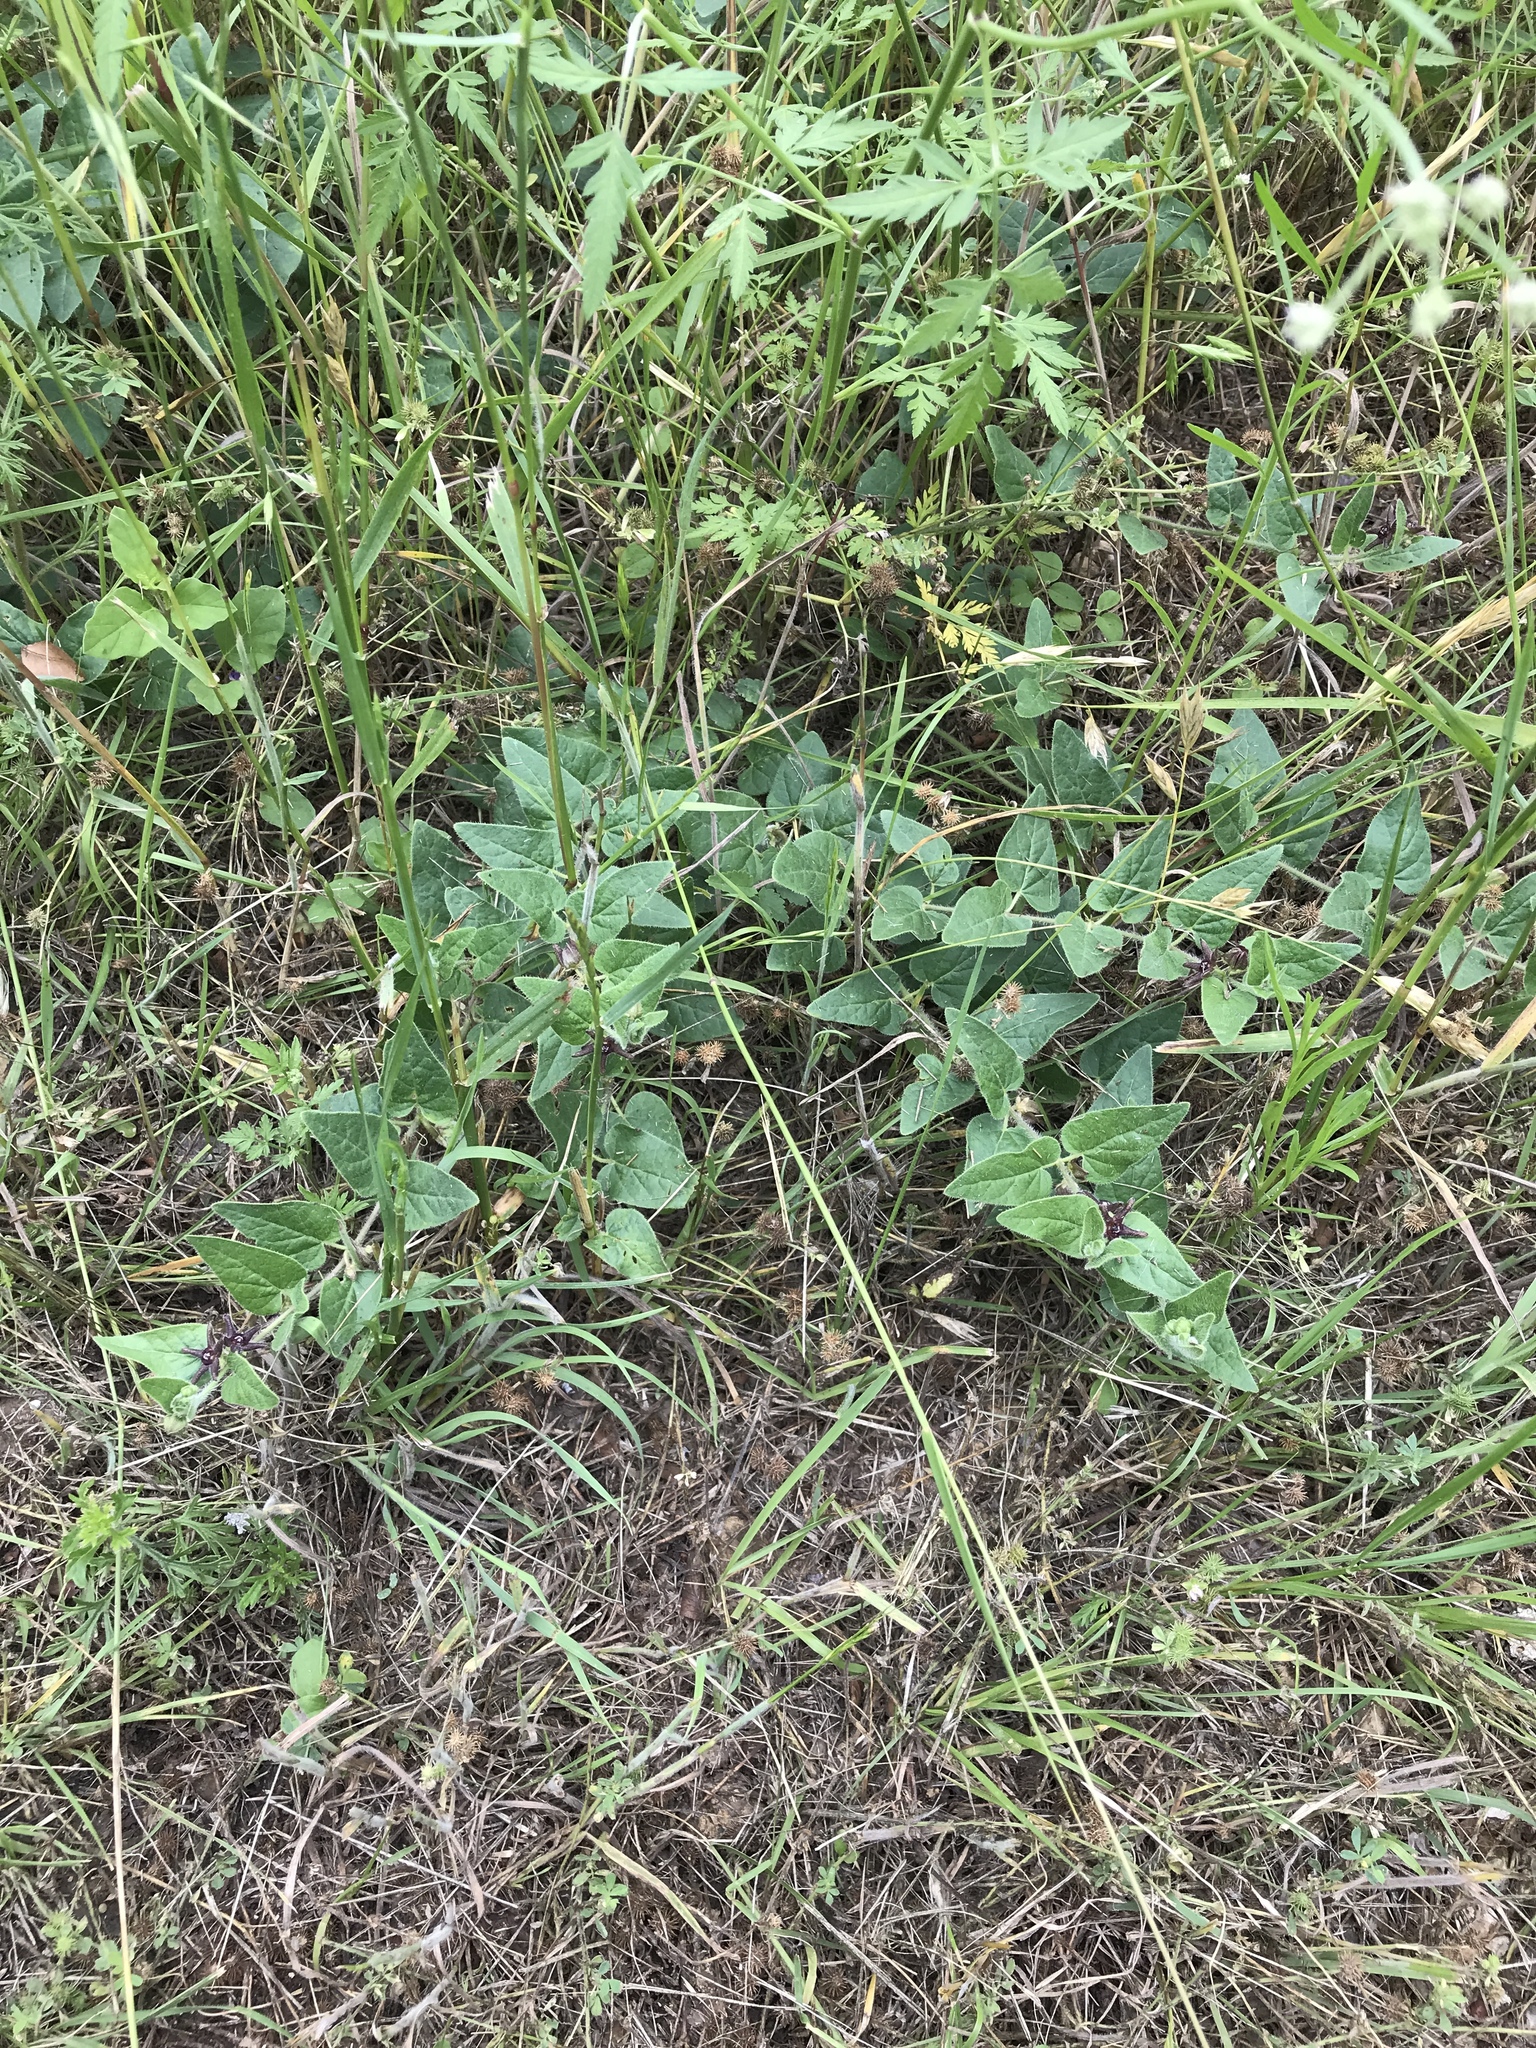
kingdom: Plantae
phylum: Tracheophyta
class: Magnoliopsida
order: Gentianales
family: Apocynaceae
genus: Chthamalia
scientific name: Chthamalia biflora
